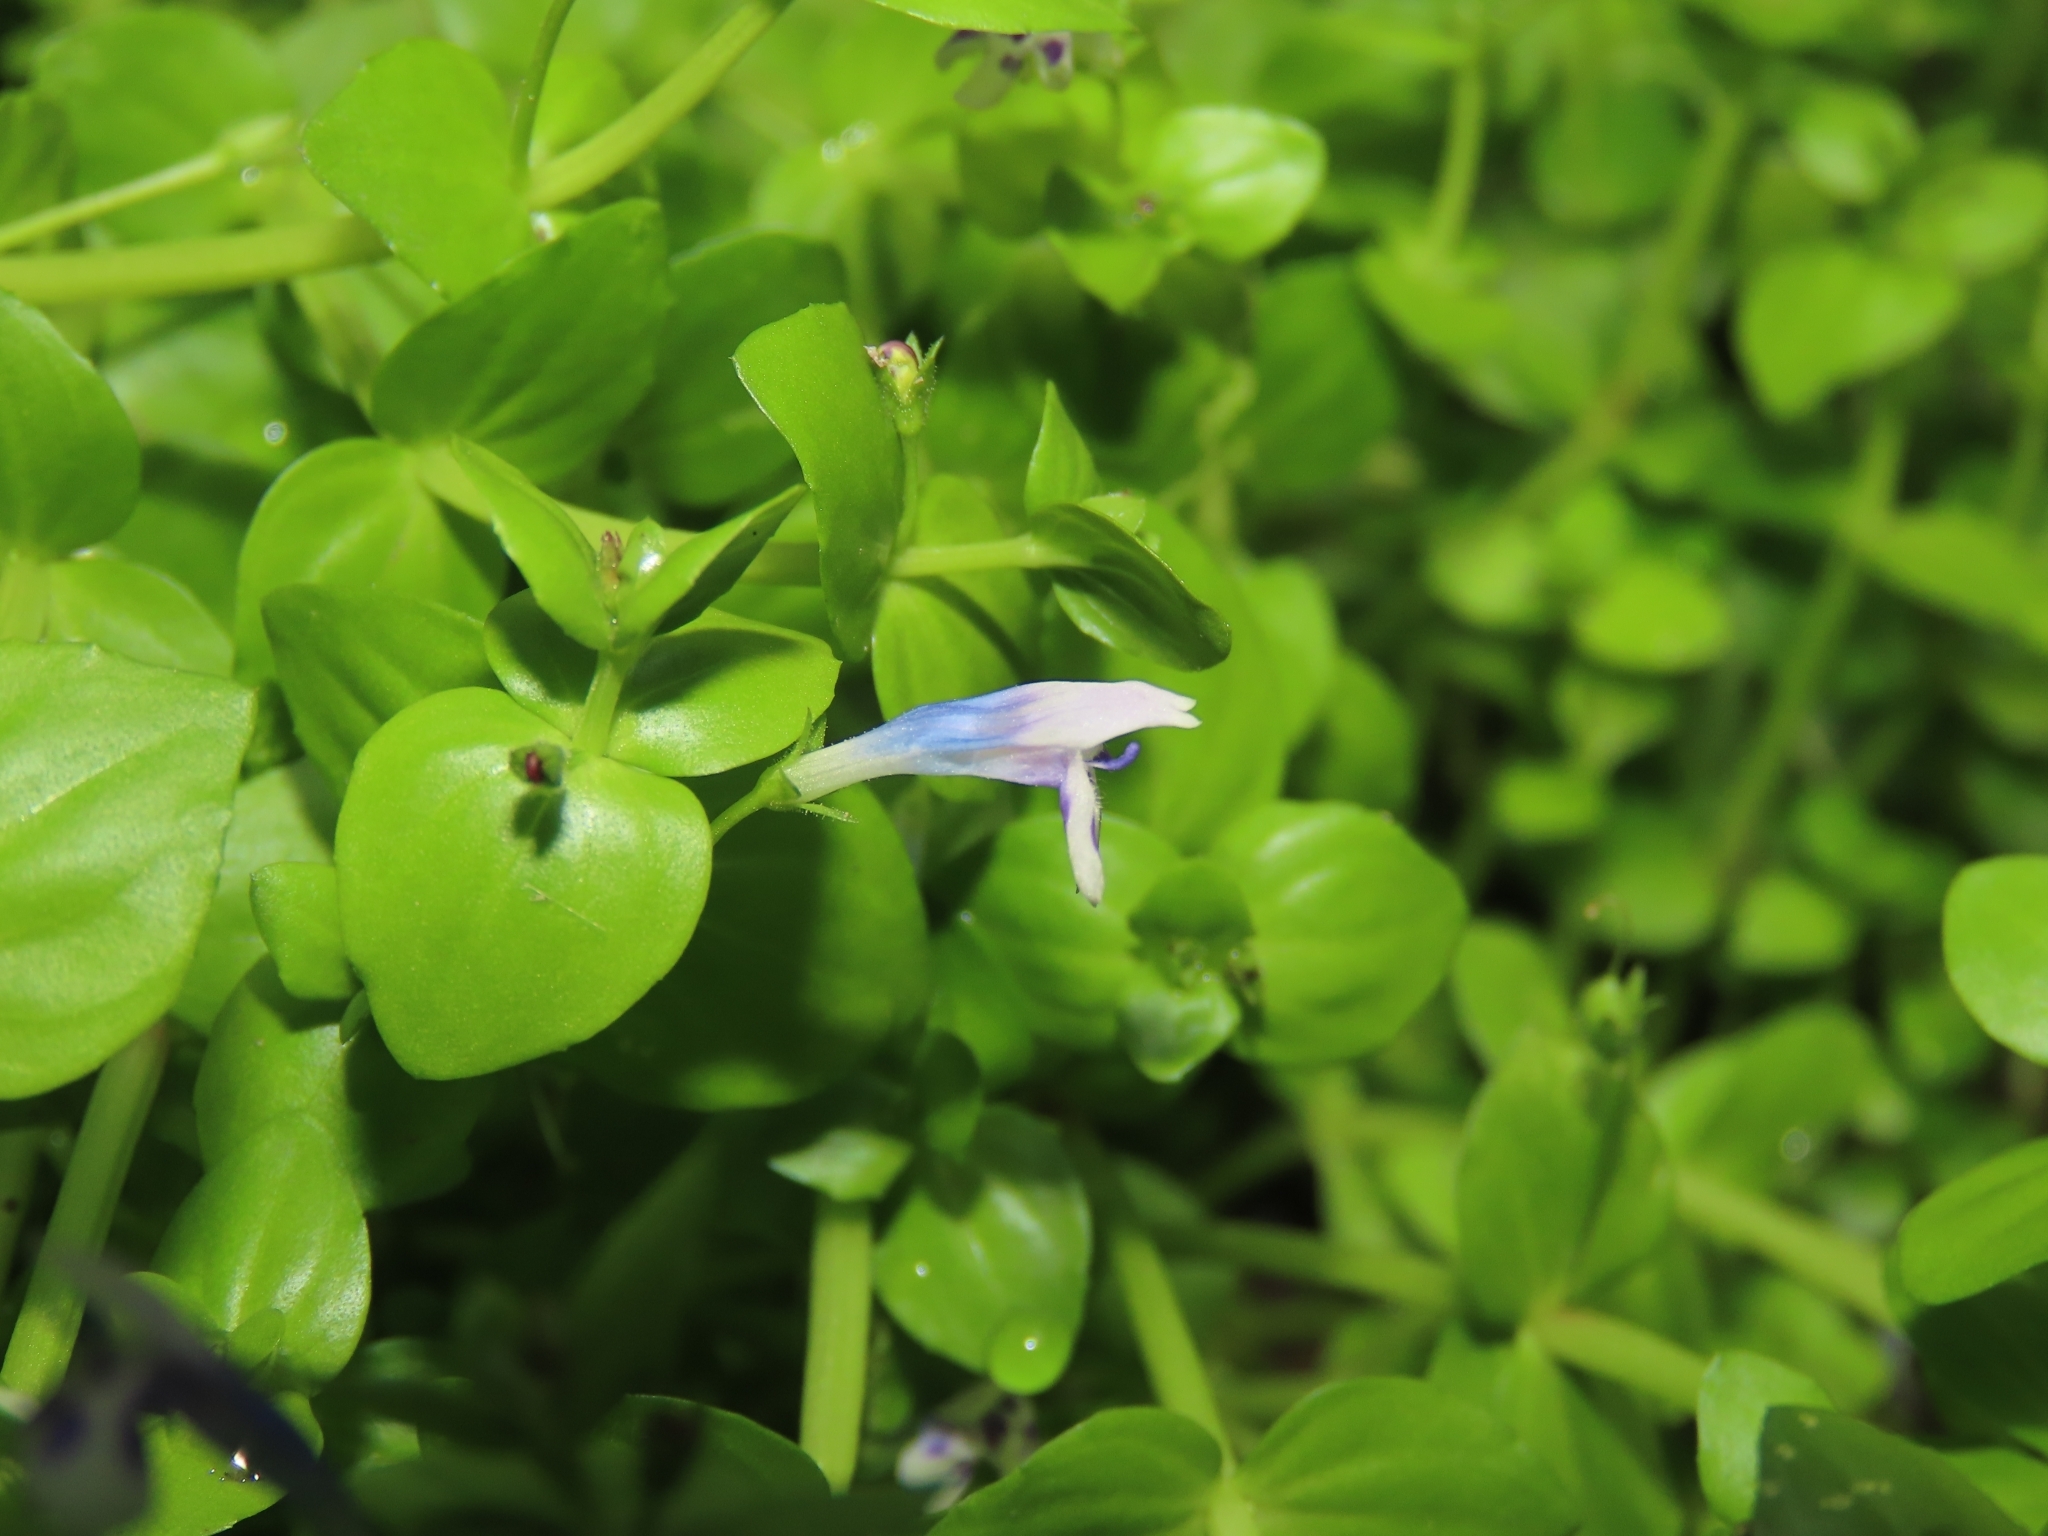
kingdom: Plantae
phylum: Tracheophyta
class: Magnoliopsida
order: Lamiales
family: Linderniaceae
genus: Lindernia
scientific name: Lindernia rotundifolia
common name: Baby’s tears
